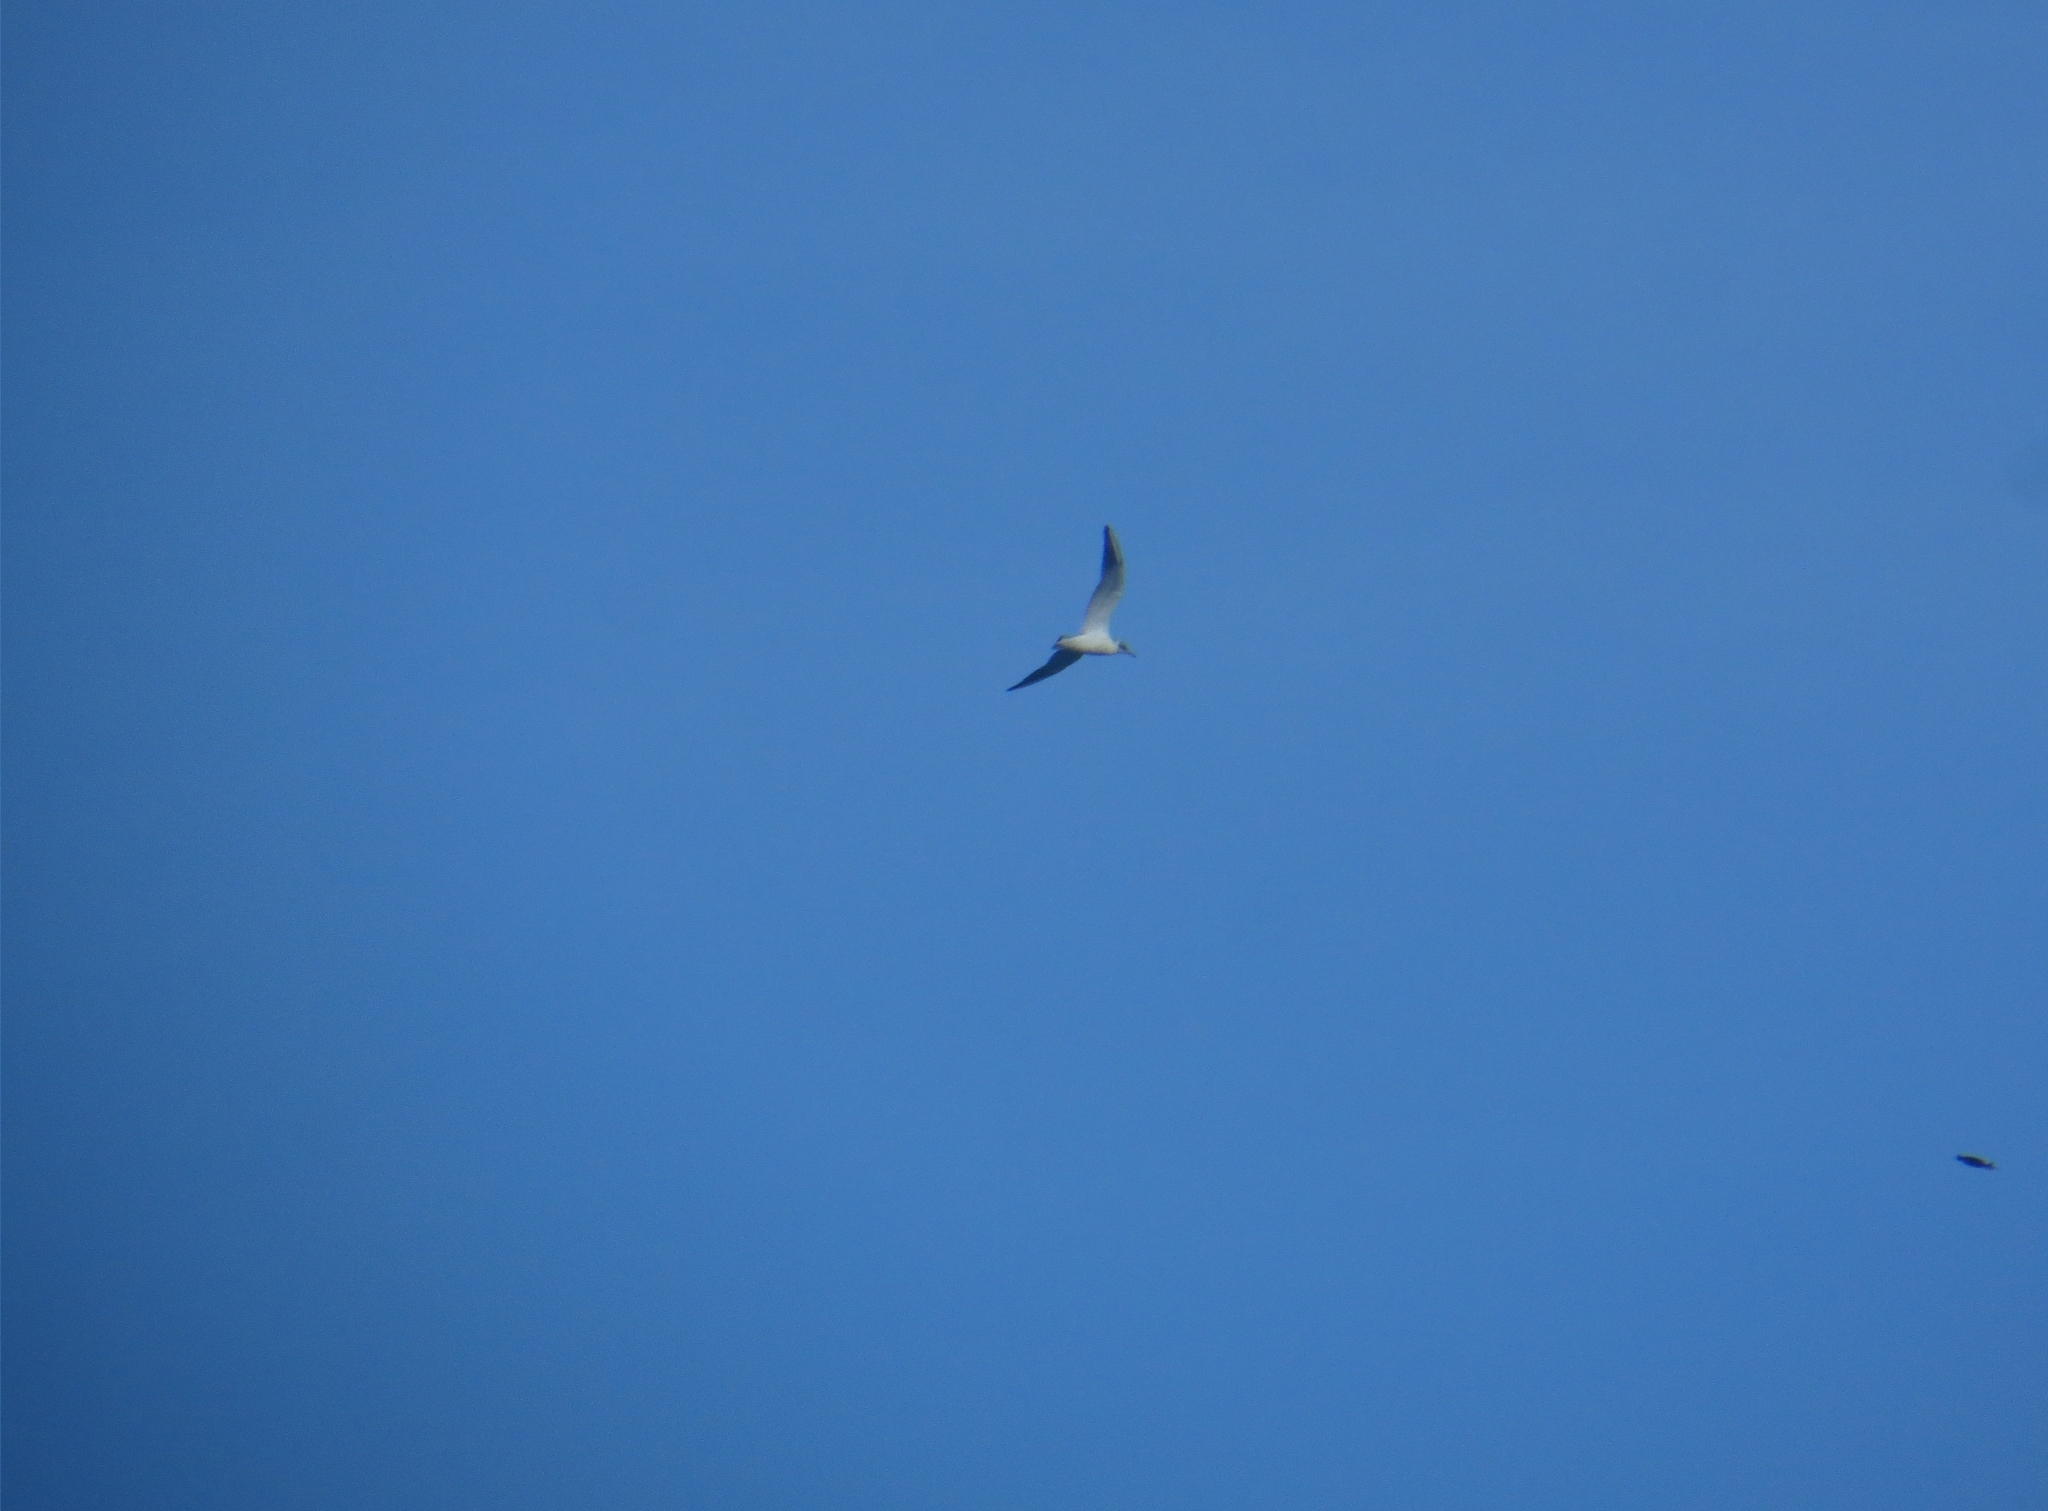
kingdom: Animalia
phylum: Chordata
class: Aves
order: Charadriiformes
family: Laridae
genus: Chroicocephalus
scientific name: Chroicocephalus ridibundus
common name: Black-headed gull
